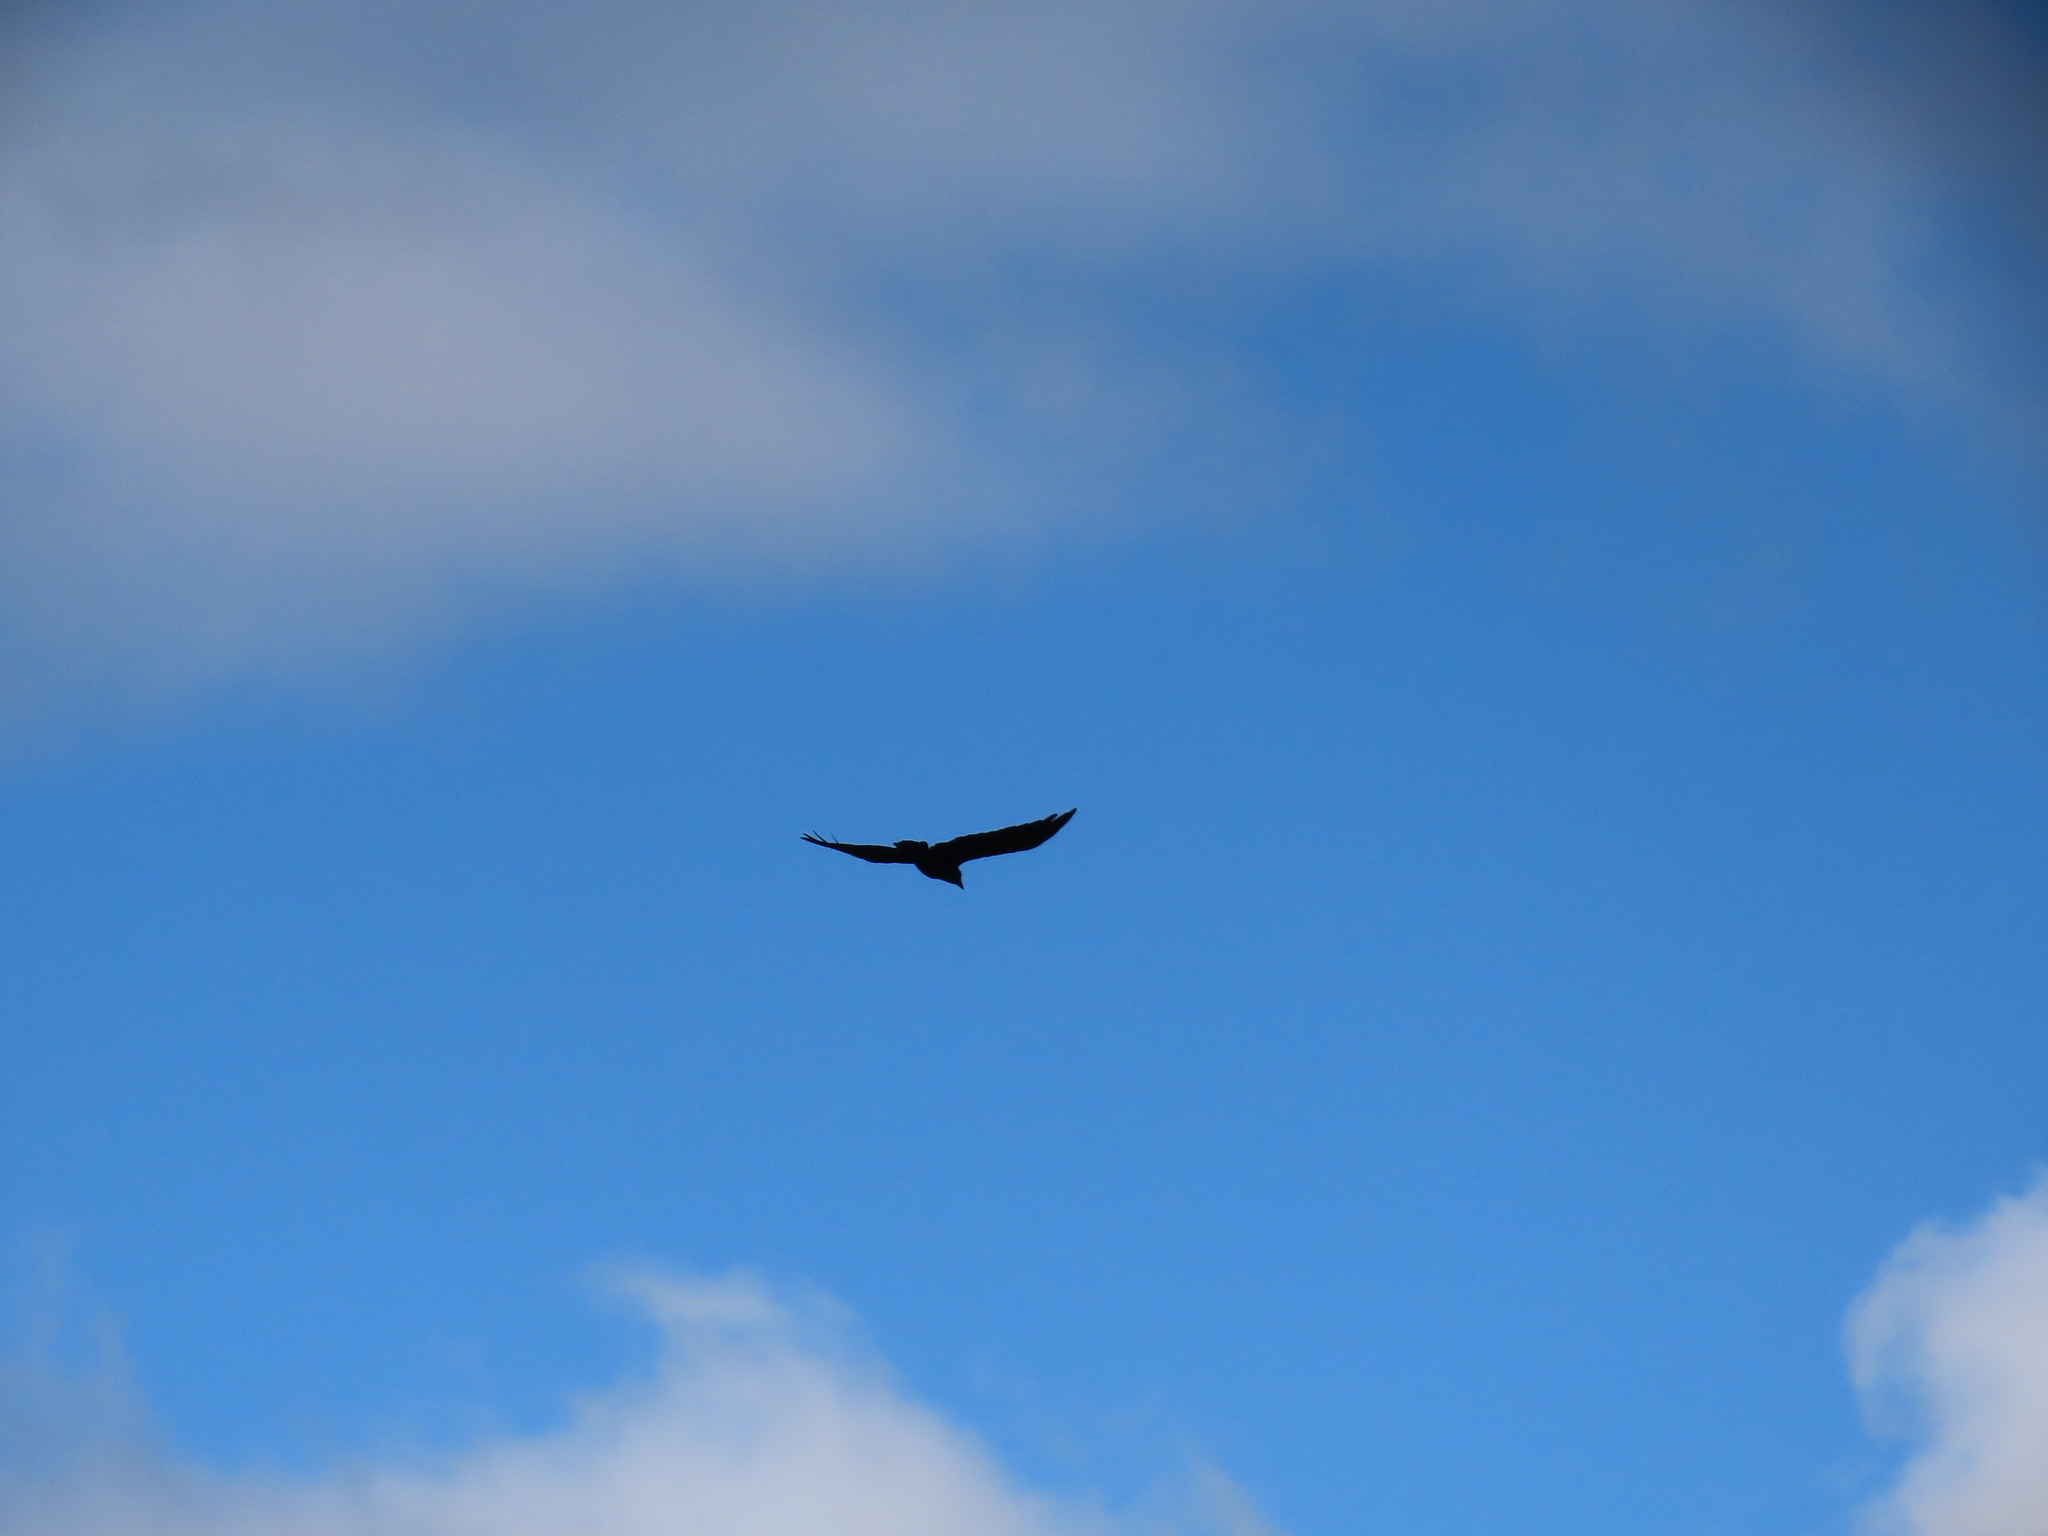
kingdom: Animalia
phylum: Chordata
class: Aves
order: Passeriformes
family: Corvidae
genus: Corvus
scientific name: Corvus brachyrhynchos
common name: American crow
